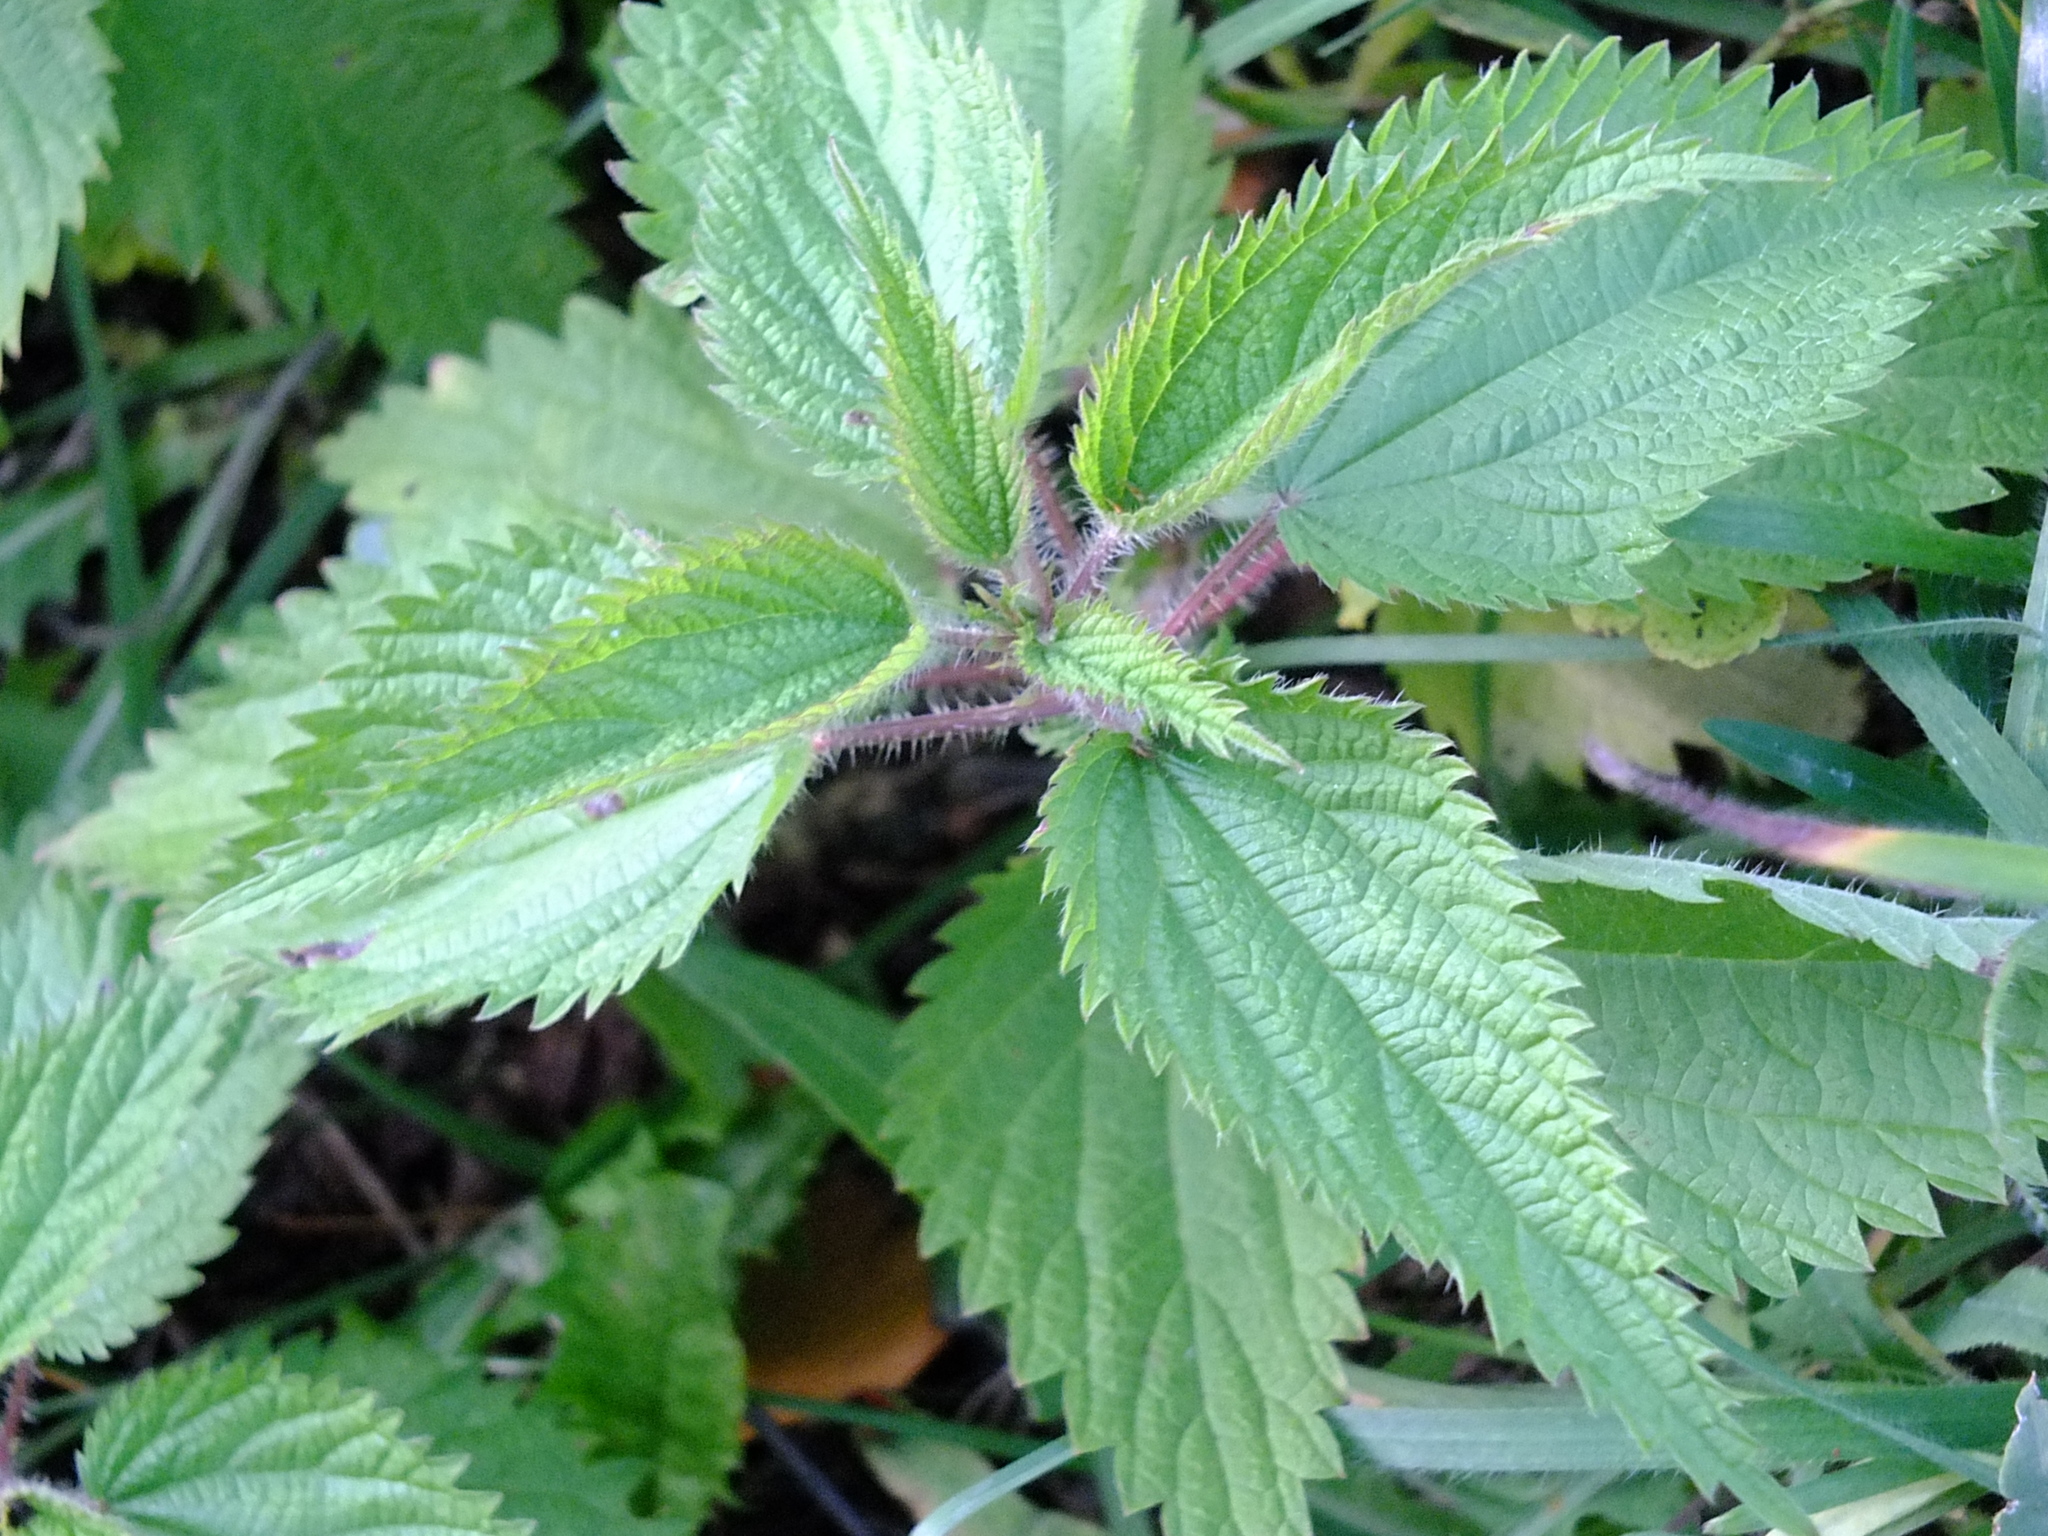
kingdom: Plantae
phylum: Tracheophyta
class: Magnoliopsida
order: Rosales
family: Urticaceae
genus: Urtica
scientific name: Urtica dioica
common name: Common nettle
